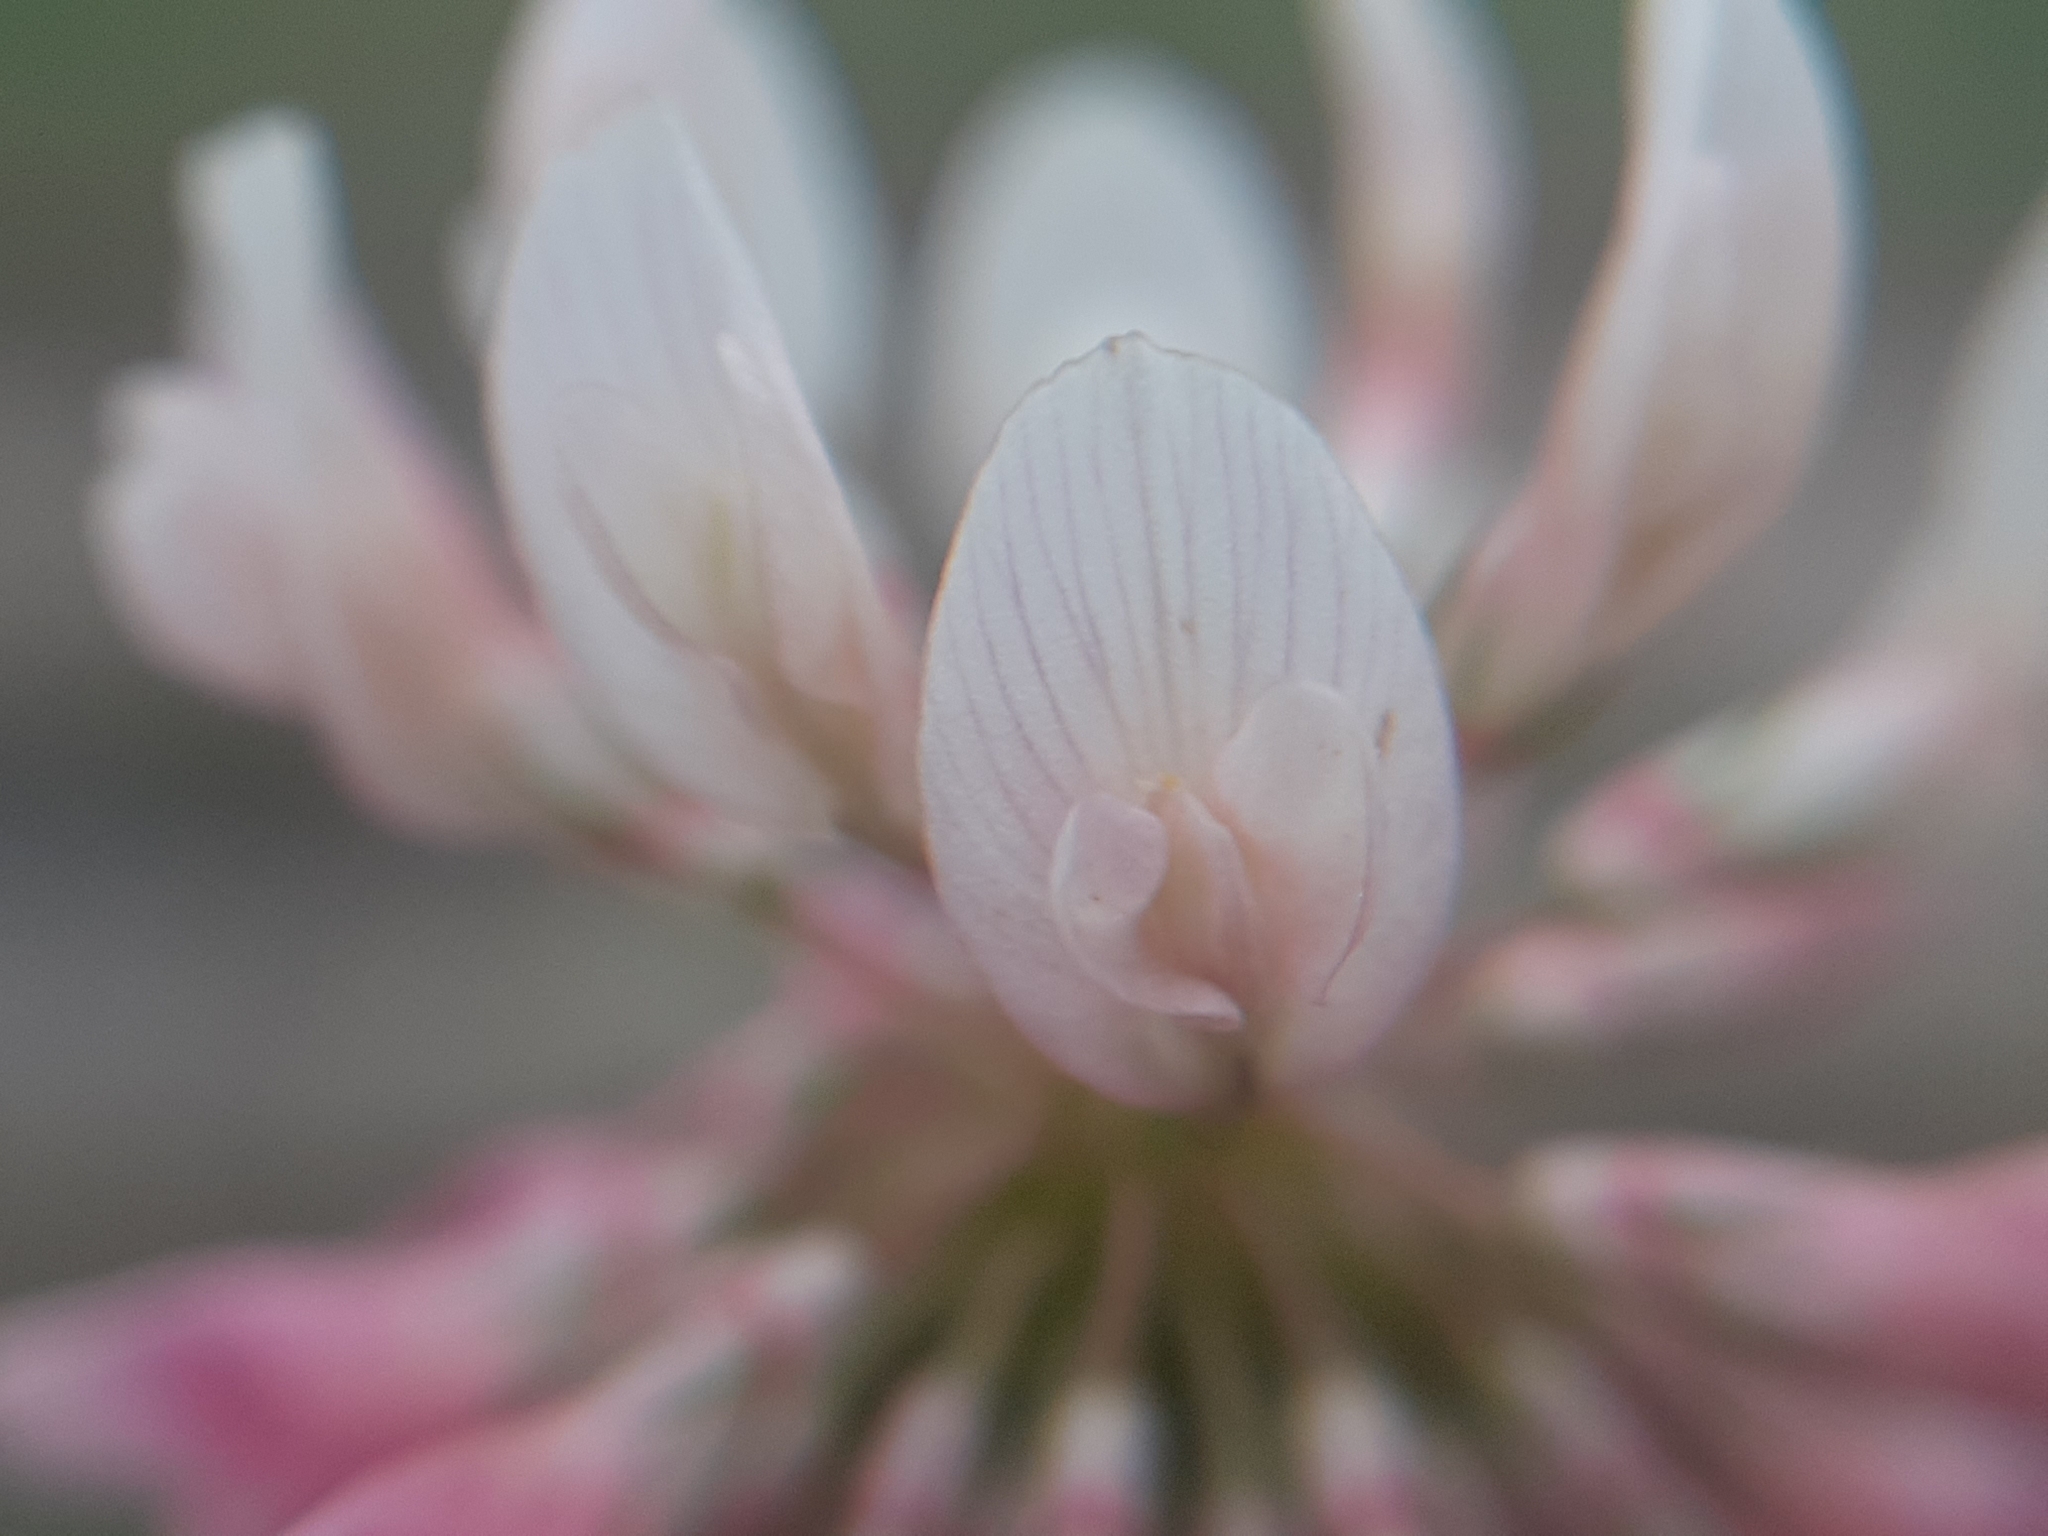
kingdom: Plantae
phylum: Tracheophyta
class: Magnoliopsida
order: Fabales
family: Fabaceae
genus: Trifolium
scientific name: Trifolium hybridum
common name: Alsike clover
